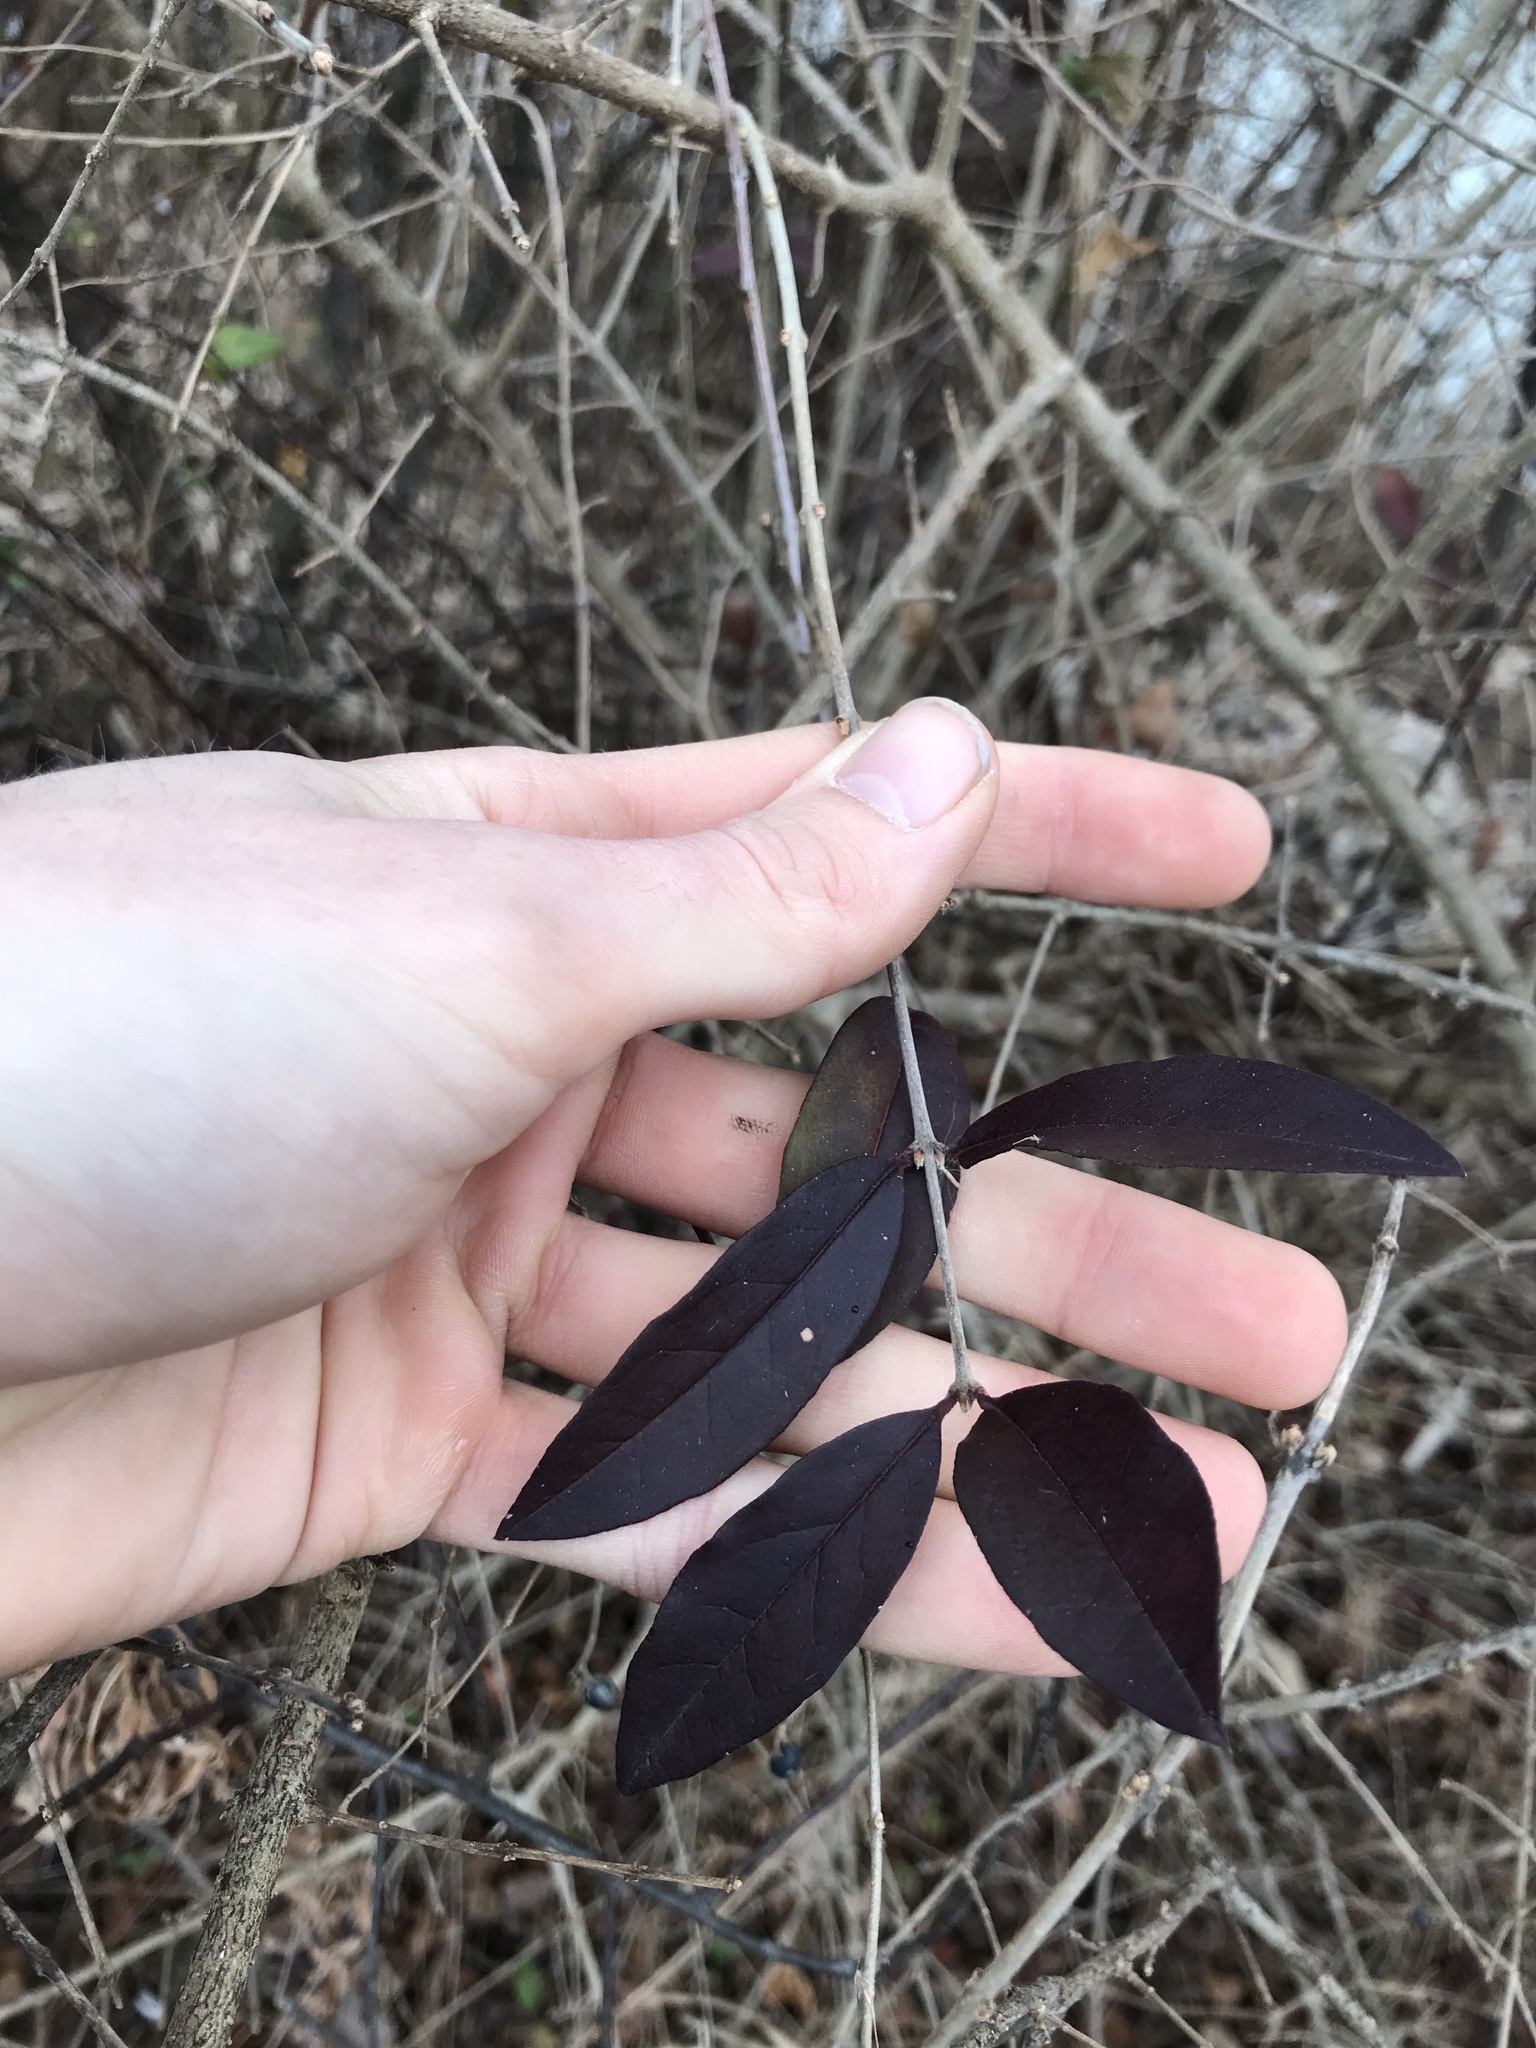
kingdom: Plantae
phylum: Tracheophyta
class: Magnoliopsida
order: Lamiales
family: Oleaceae
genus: Ligustrum
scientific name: Ligustrum obtusifolium
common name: Border privet
